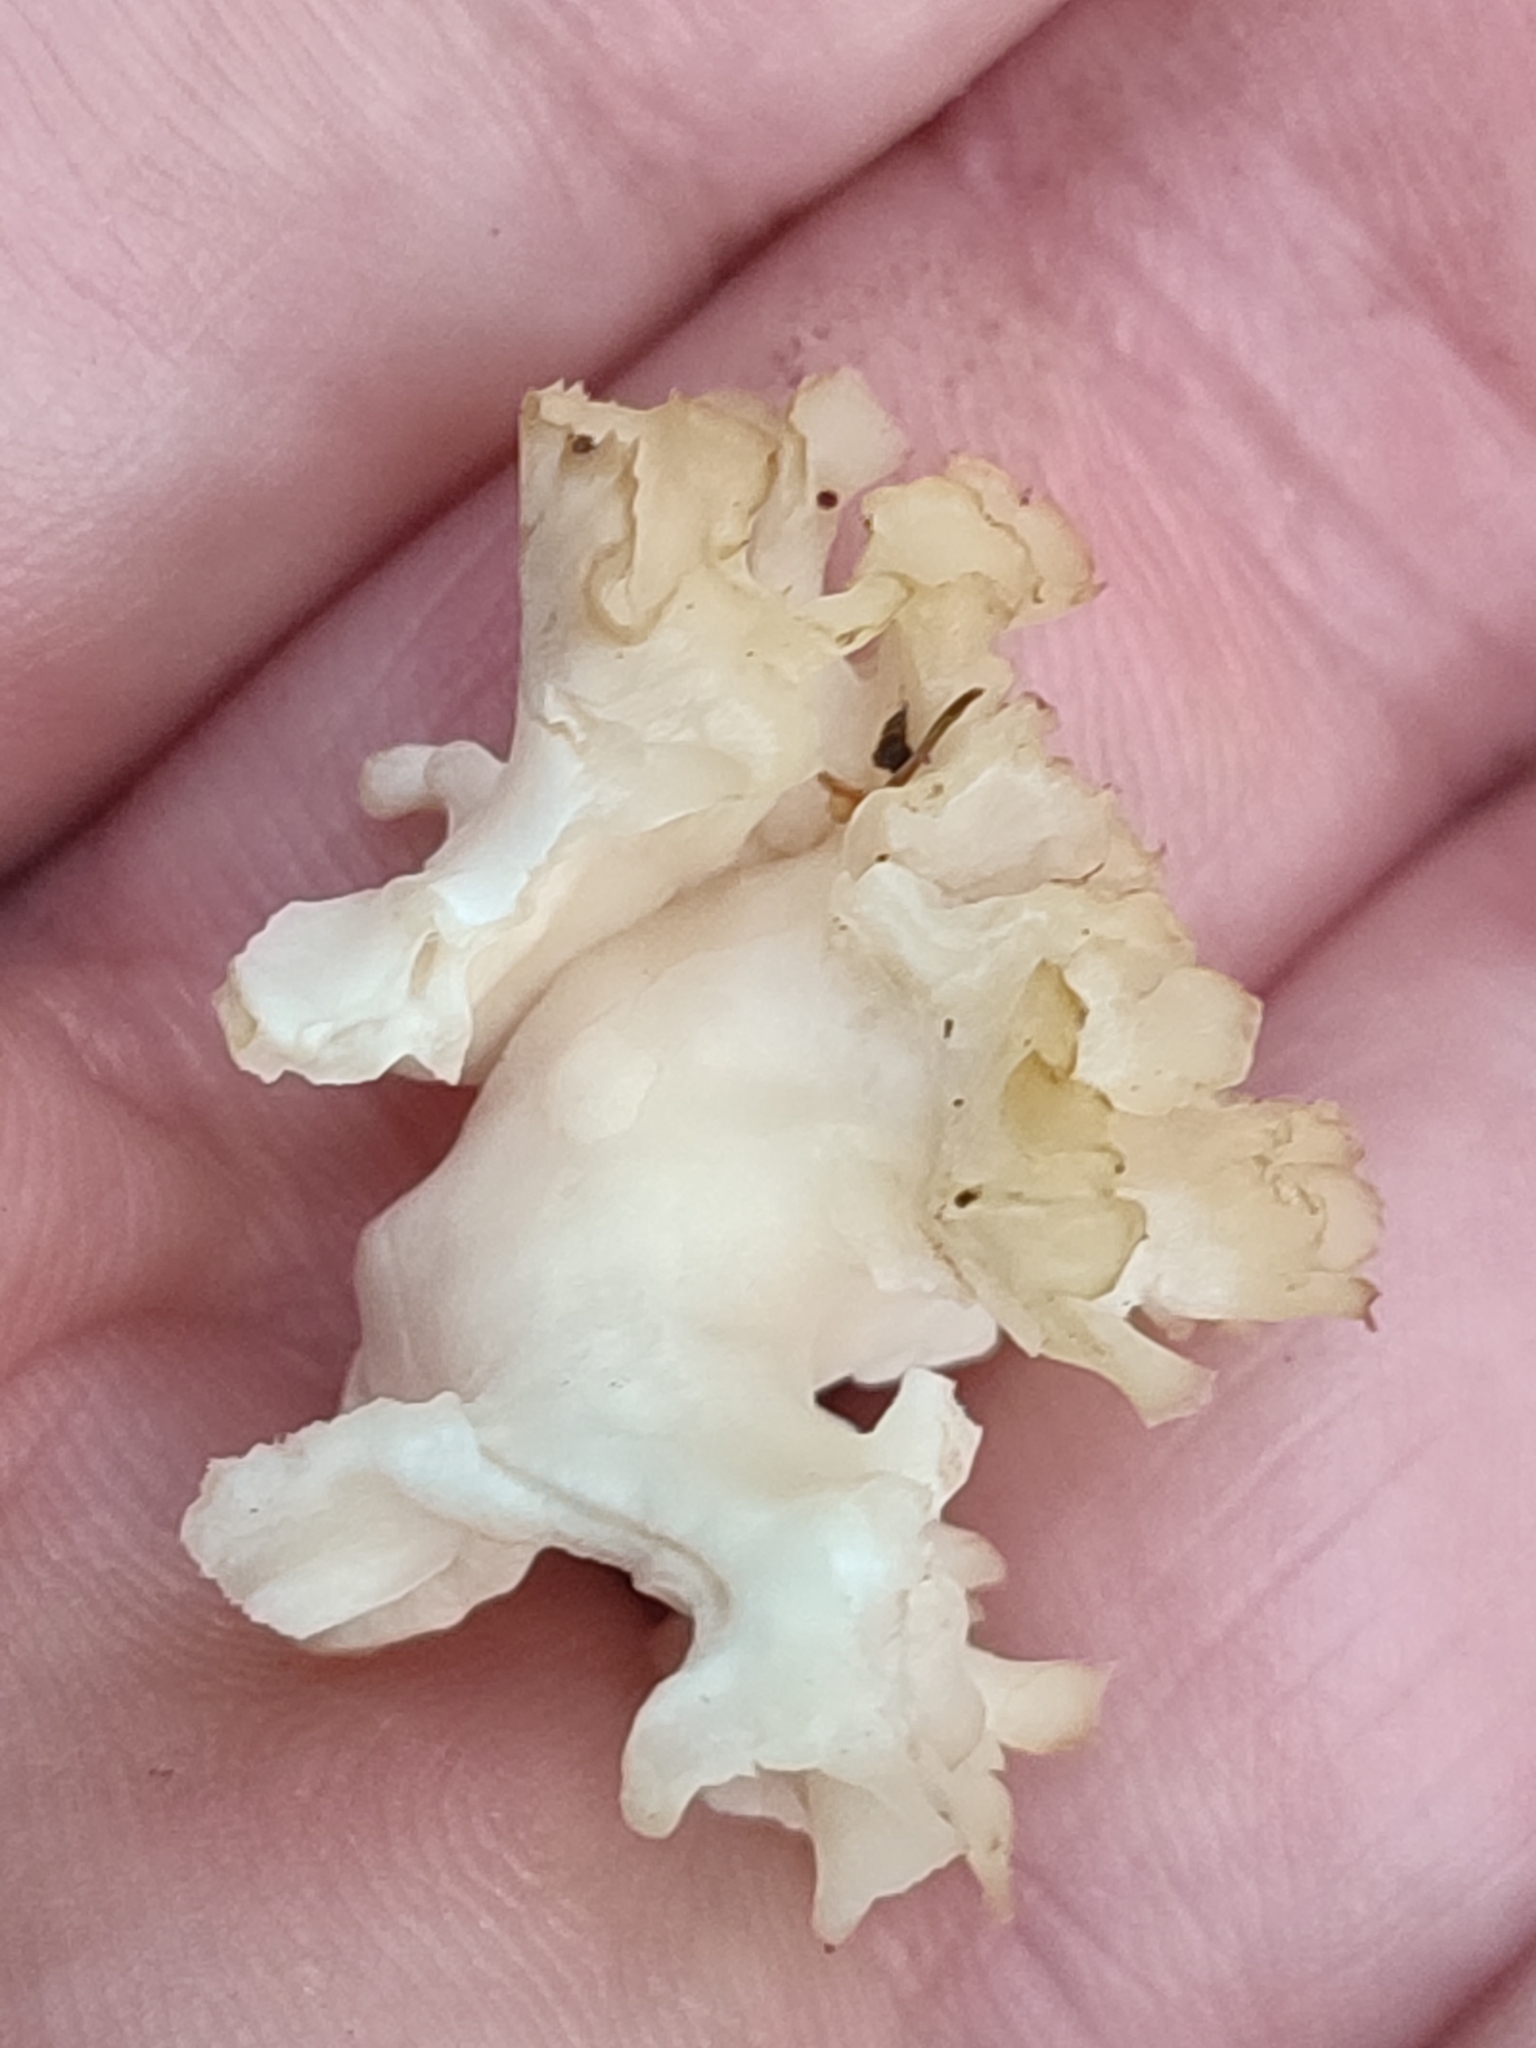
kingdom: Fungi
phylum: Basidiomycota
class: Agaricomycetes
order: Polyporales
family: Sparassidaceae
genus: Sparassis
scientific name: Sparassis crispa
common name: Brain fungus
